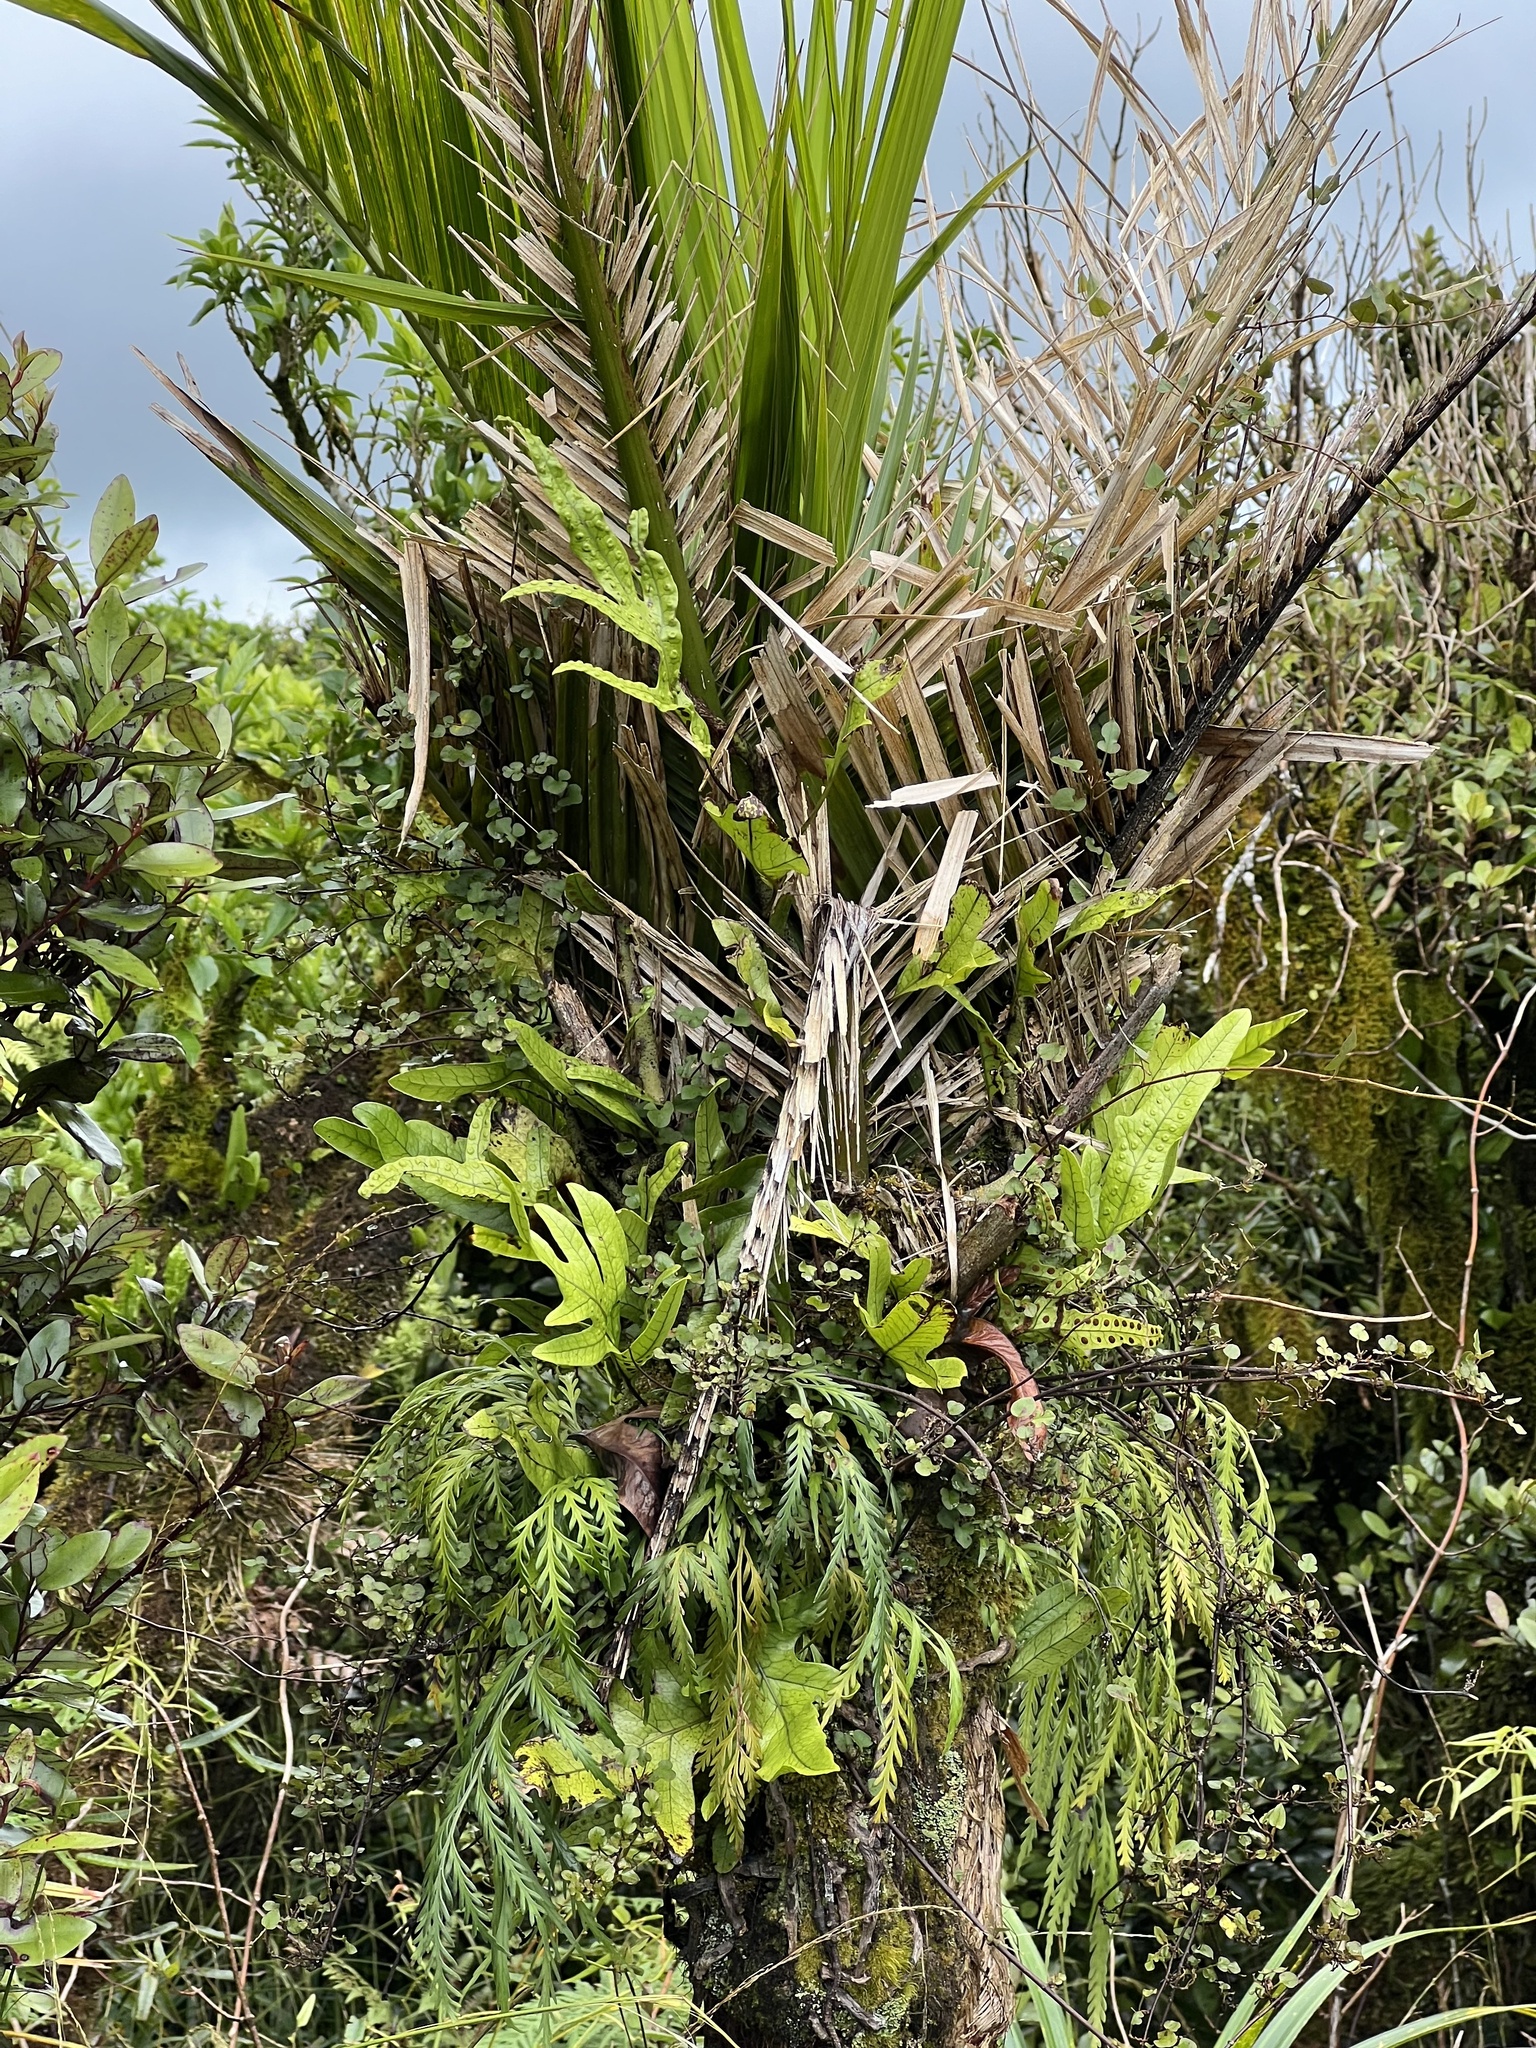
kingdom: Plantae
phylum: Tracheophyta
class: Liliopsida
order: Arecales
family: Arecaceae
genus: Rhopalostylis
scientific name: Rhopalostylis sapida
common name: Feather-duster palm
